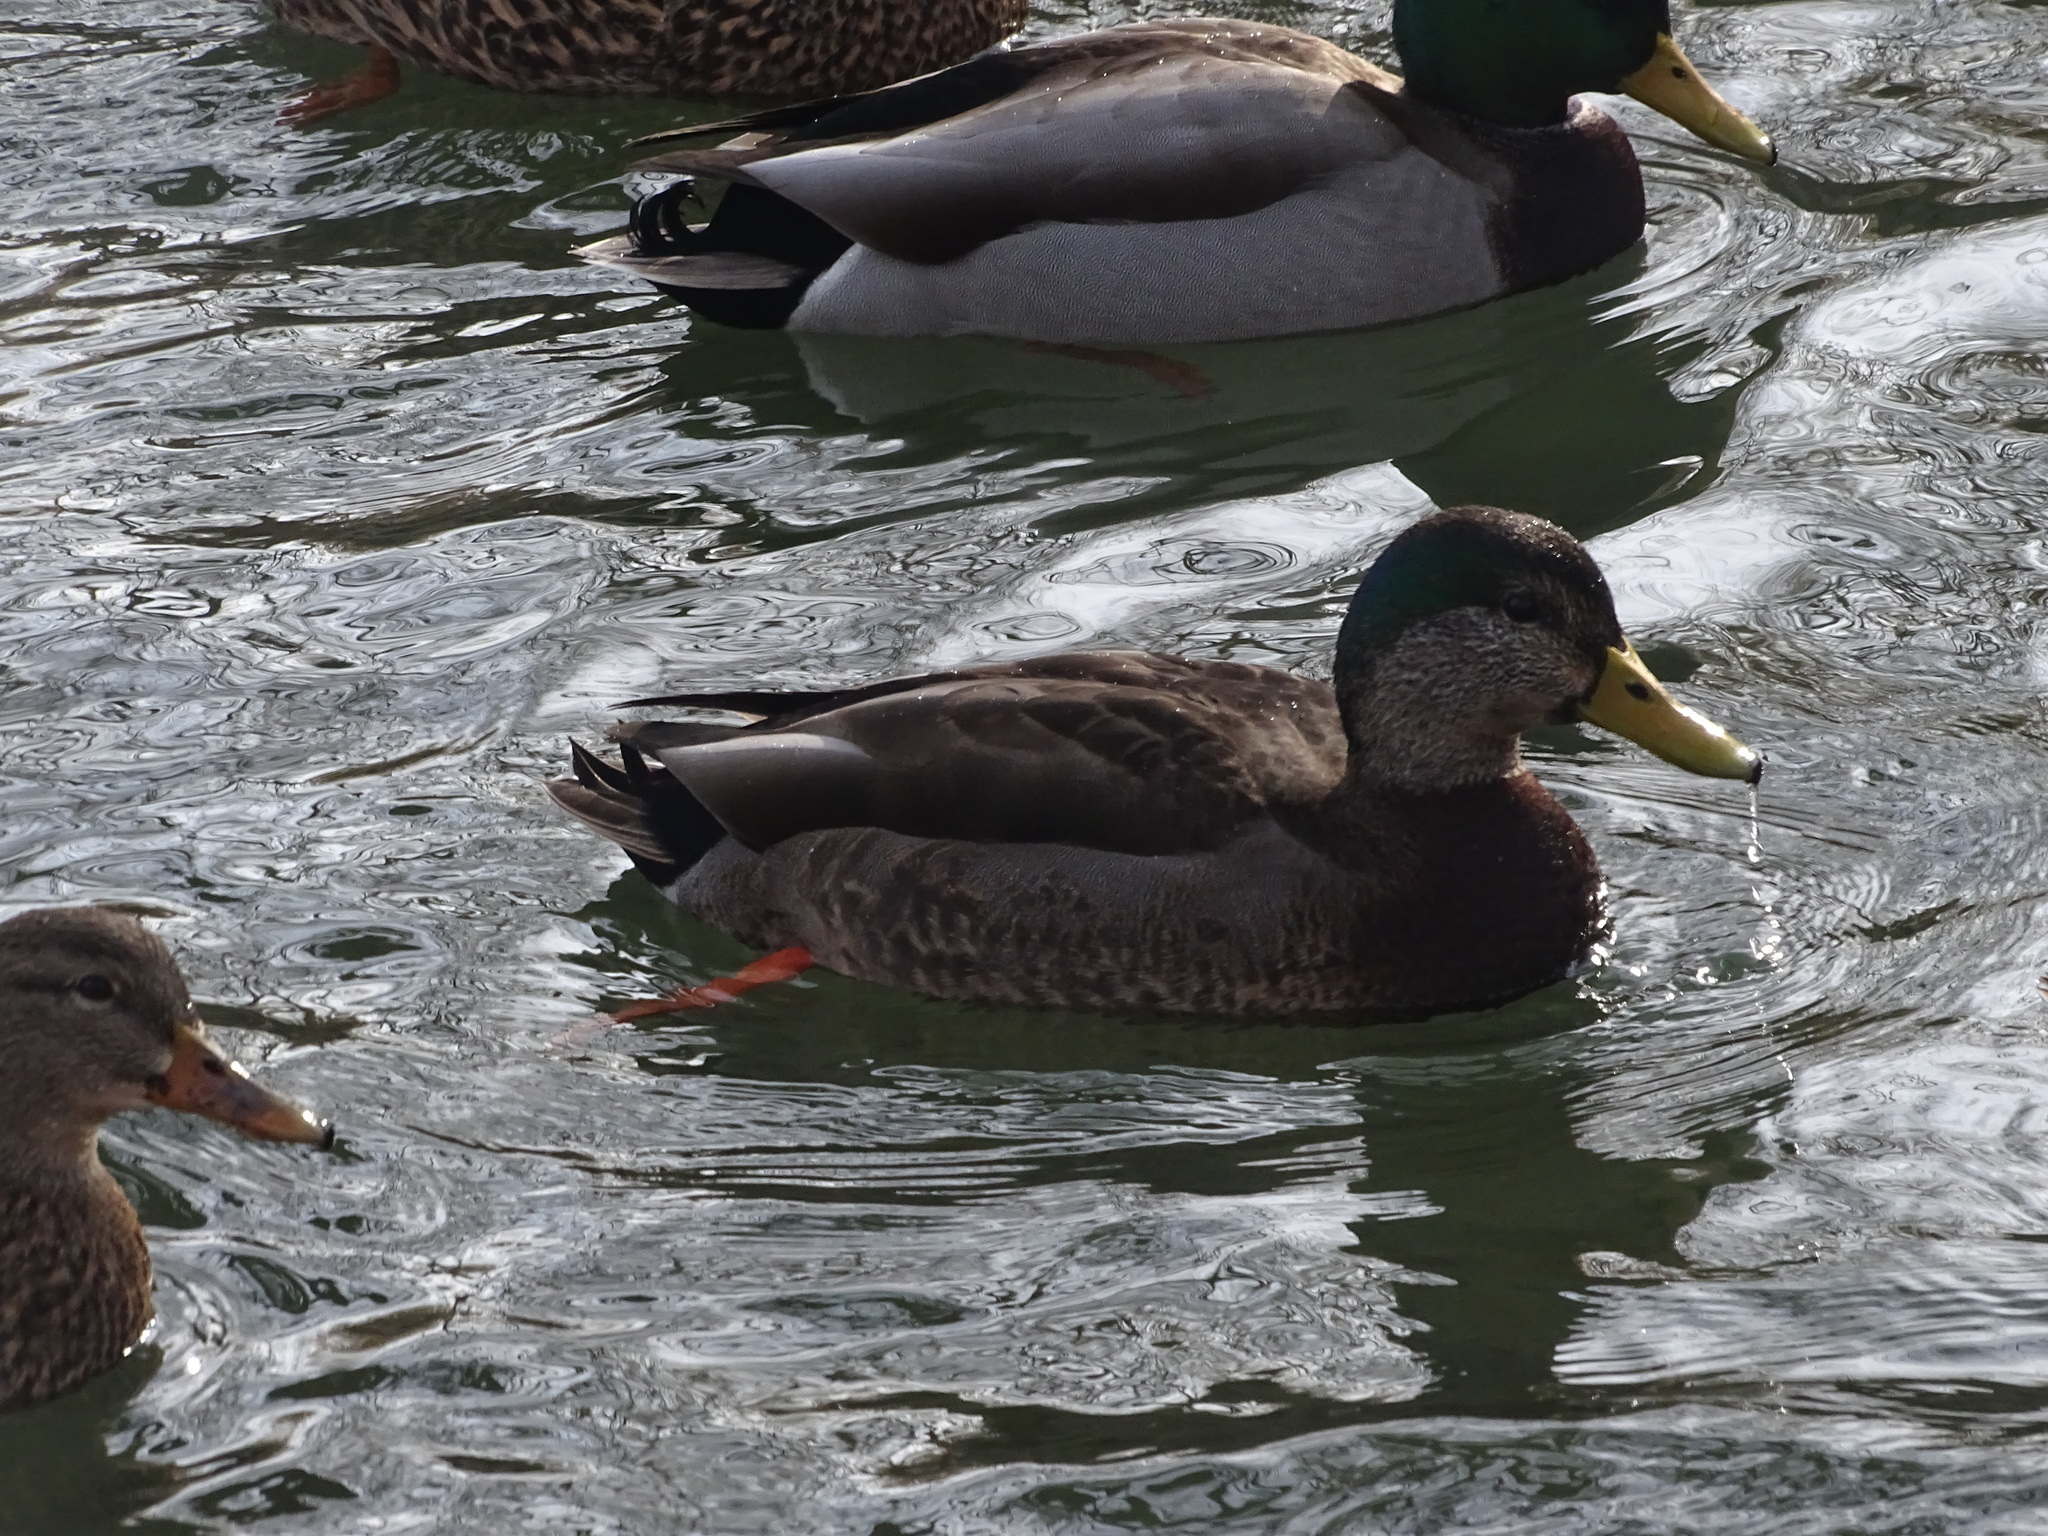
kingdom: Animalia
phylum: Chordata
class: Aves
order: Anseriformes
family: Anatidae
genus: Anas
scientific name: Anas
